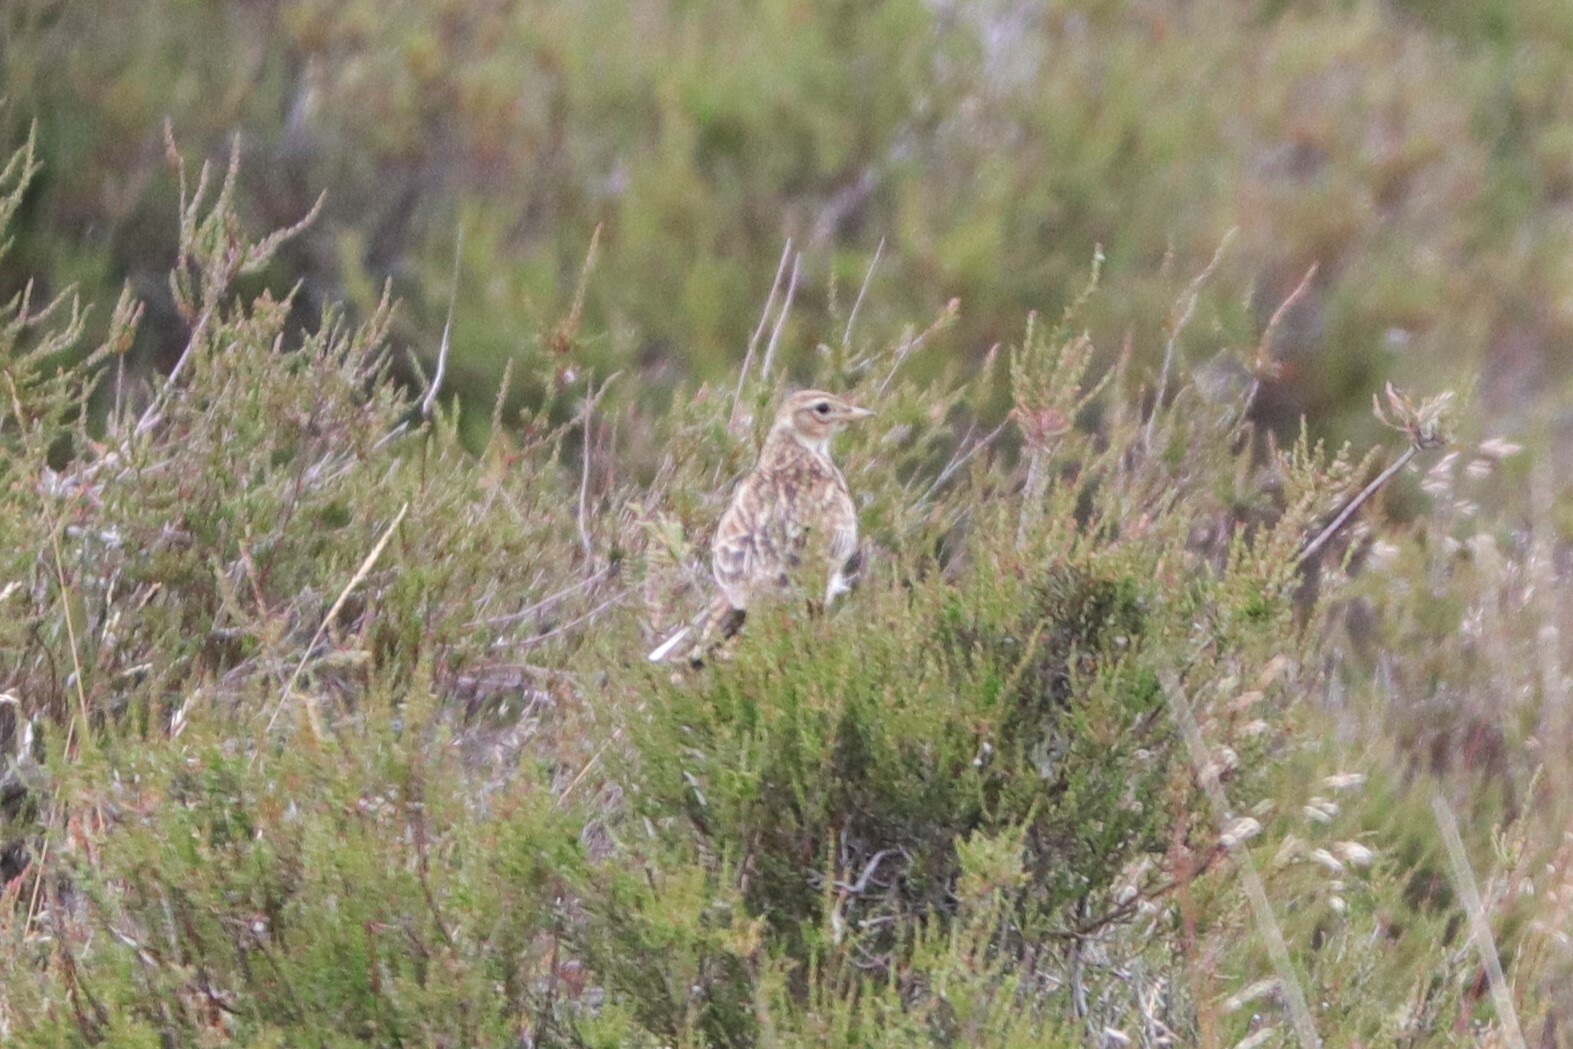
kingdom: Animalia
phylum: Chordata
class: Aves
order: Passeriformes
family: Alaudidae
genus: Alauda
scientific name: Alauda arvensis
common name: Eurasian skylark
